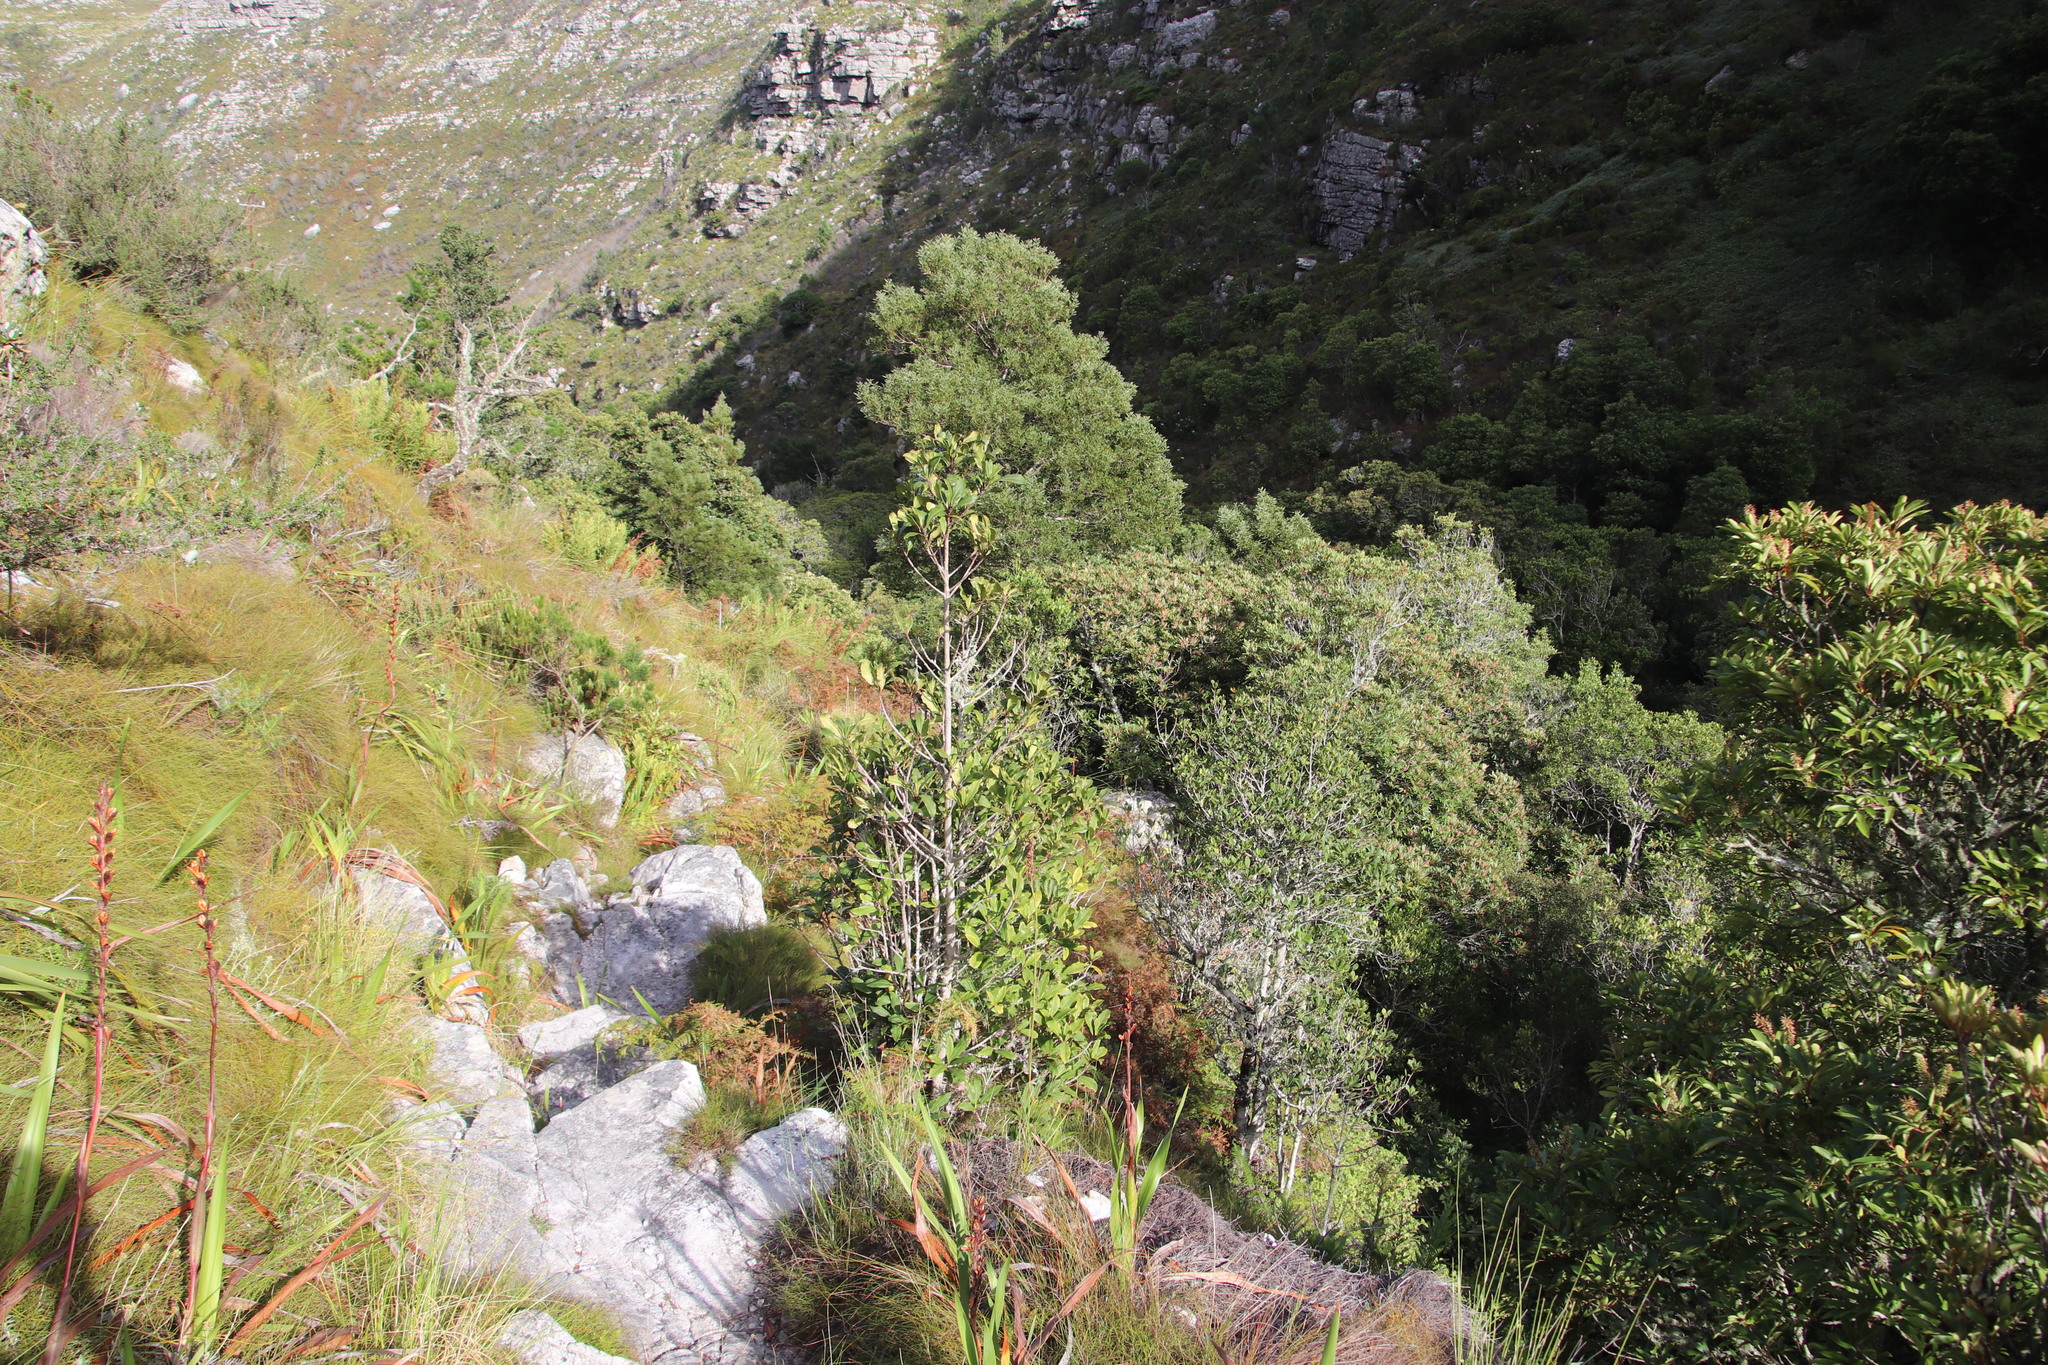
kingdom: Plantae
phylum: Tracheophyta
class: Magnoliopsida
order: Ericales
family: Primulaceae
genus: Myrsine
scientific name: Myrsine melanophloeos
